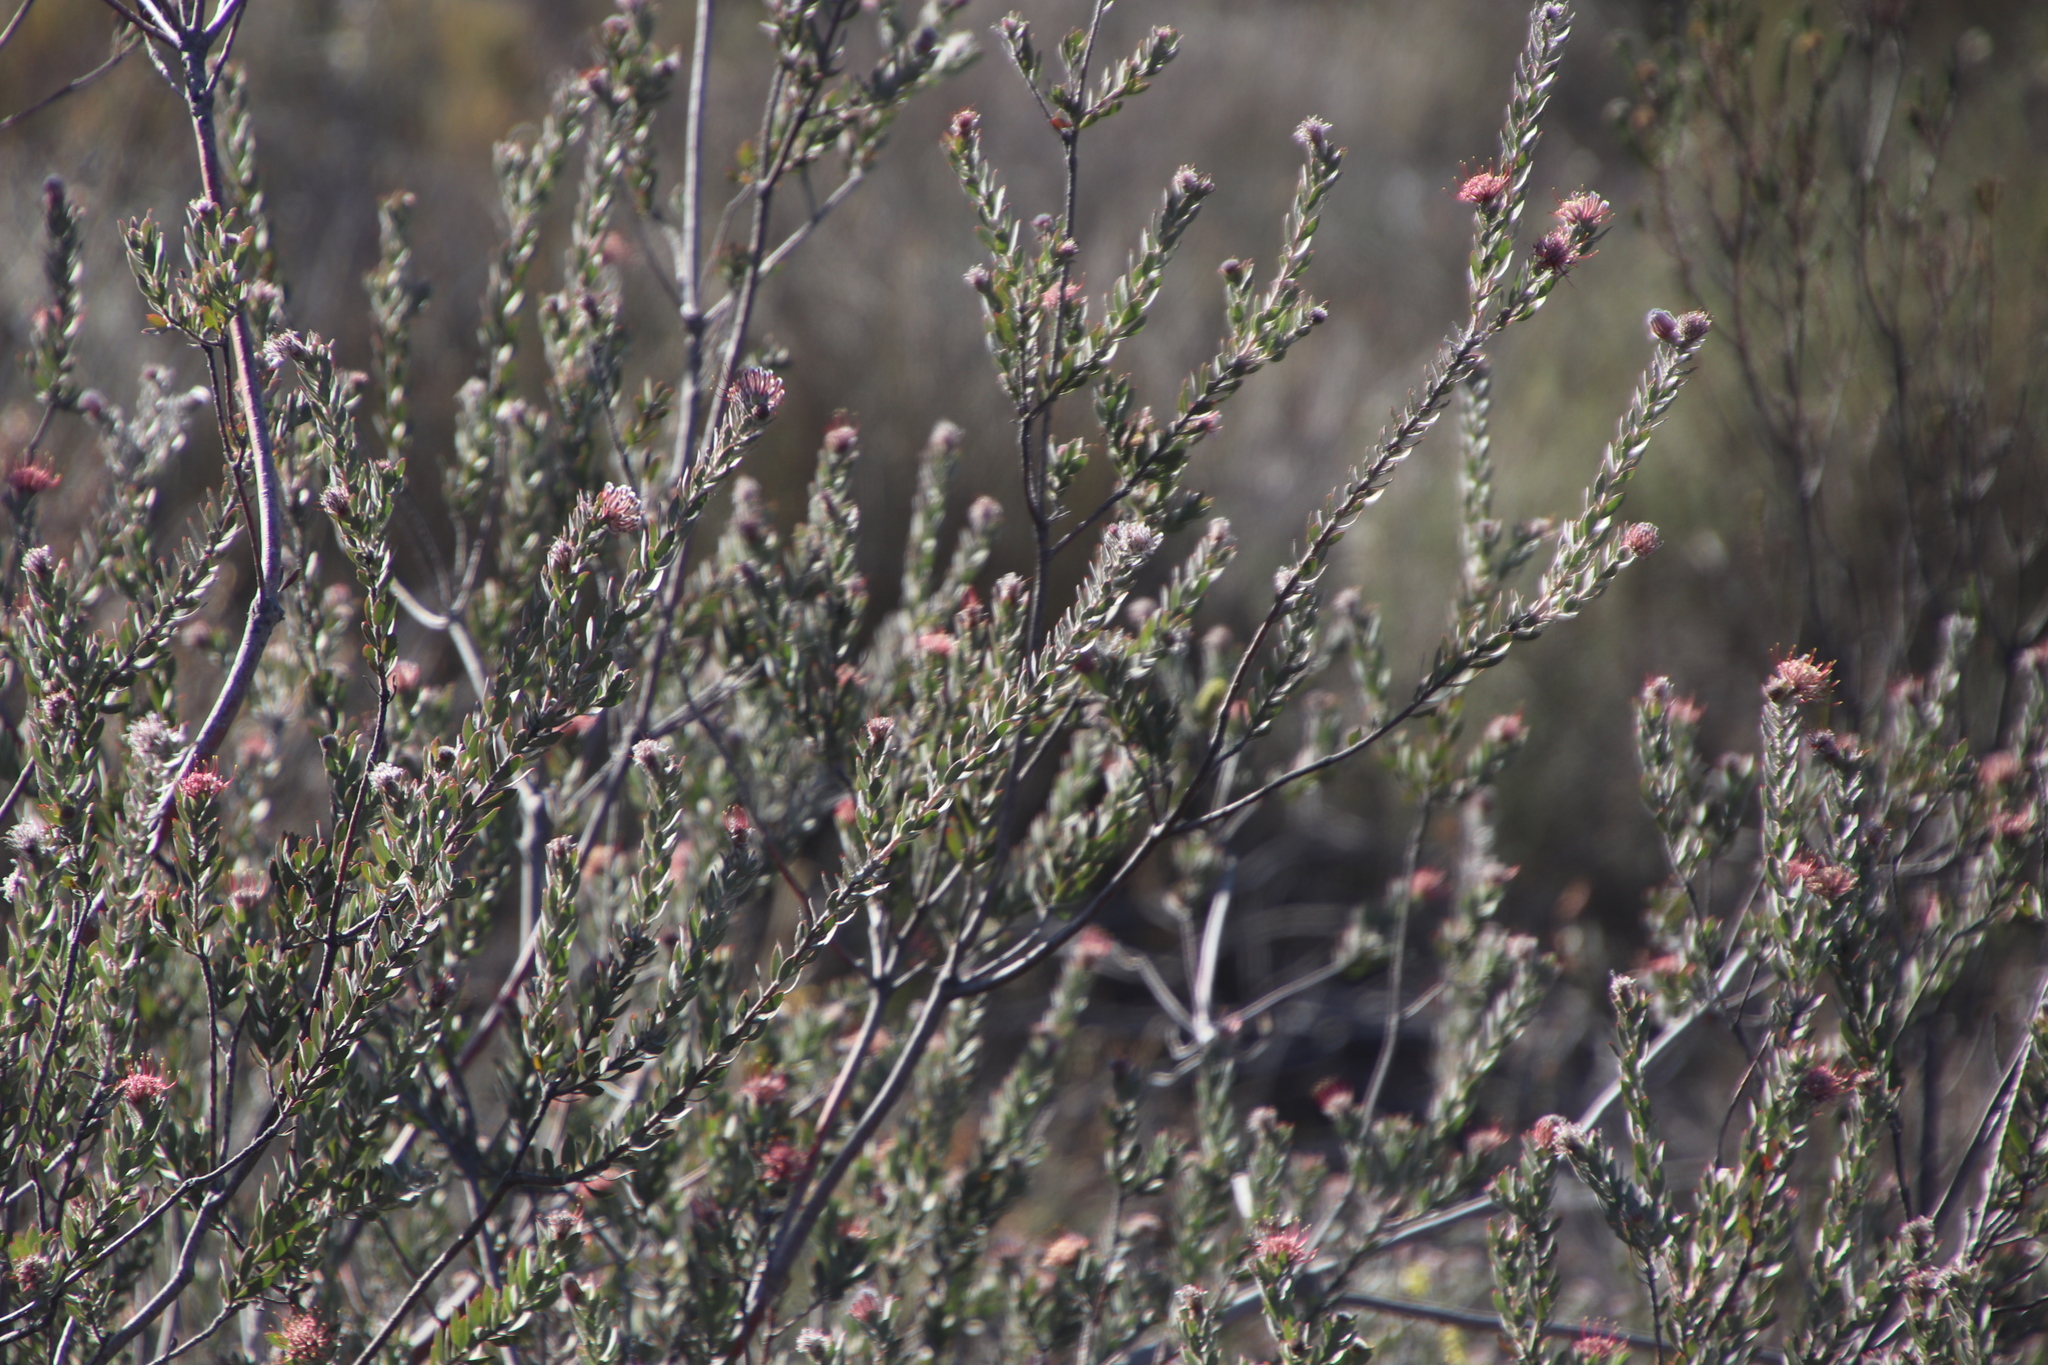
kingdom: Plantae
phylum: Tracheophyta
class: Magnoliopsida
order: Proteales
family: Proteaceae
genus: Leucospermum
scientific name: Leucospermum calligerum
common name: Arid pincushion
